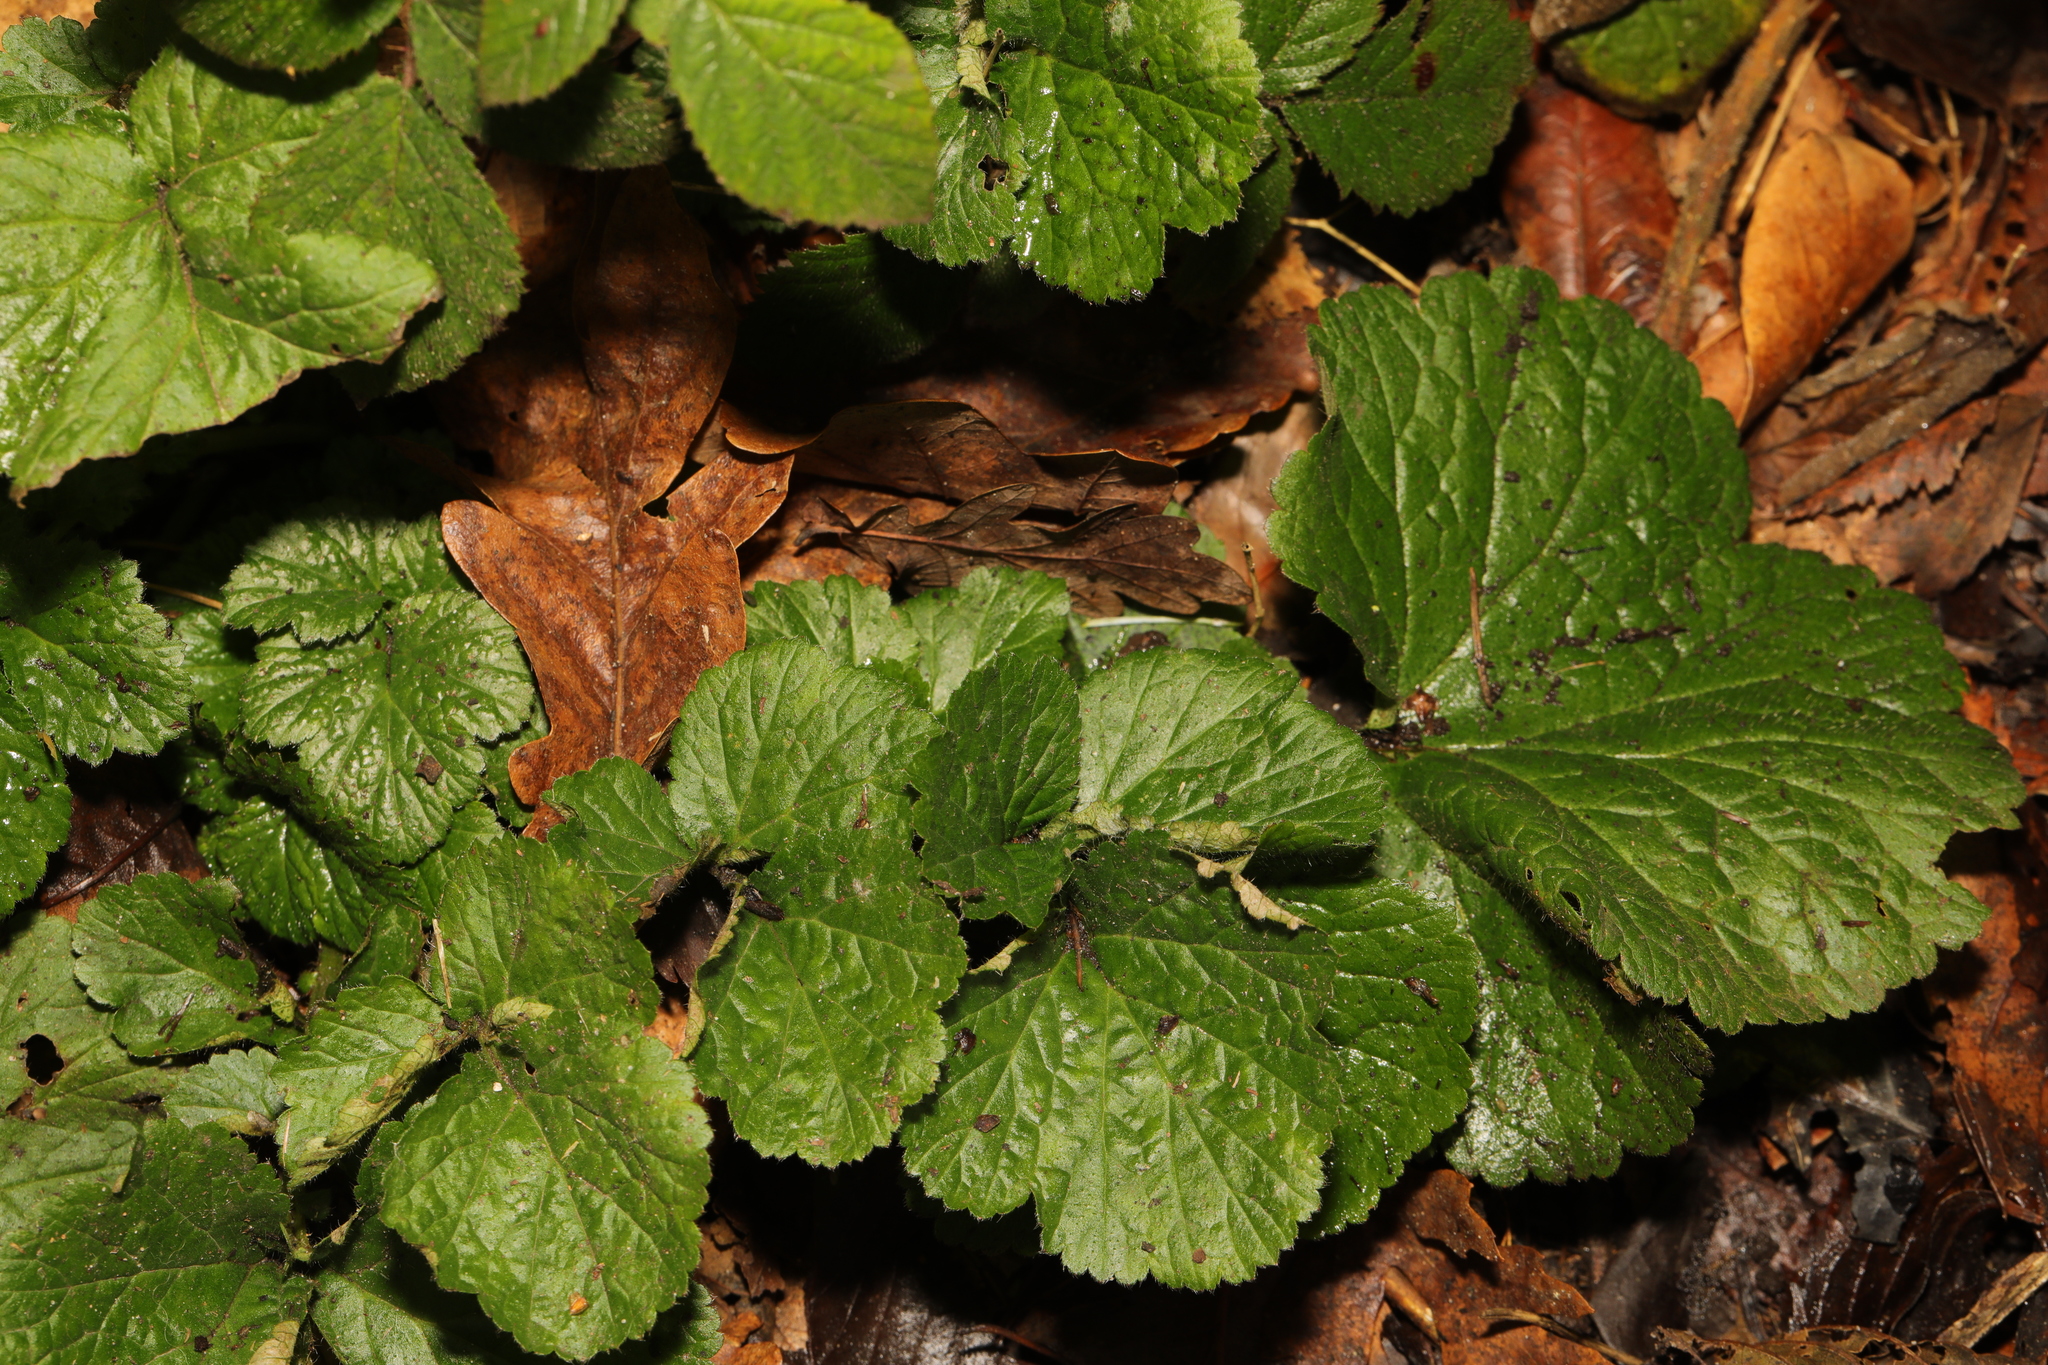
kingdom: Plantae
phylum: Tracheophyta
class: Magnoliopsida
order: Rosales
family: Rosaceae
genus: Geum
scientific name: Geum urbanum
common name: Wood avens
